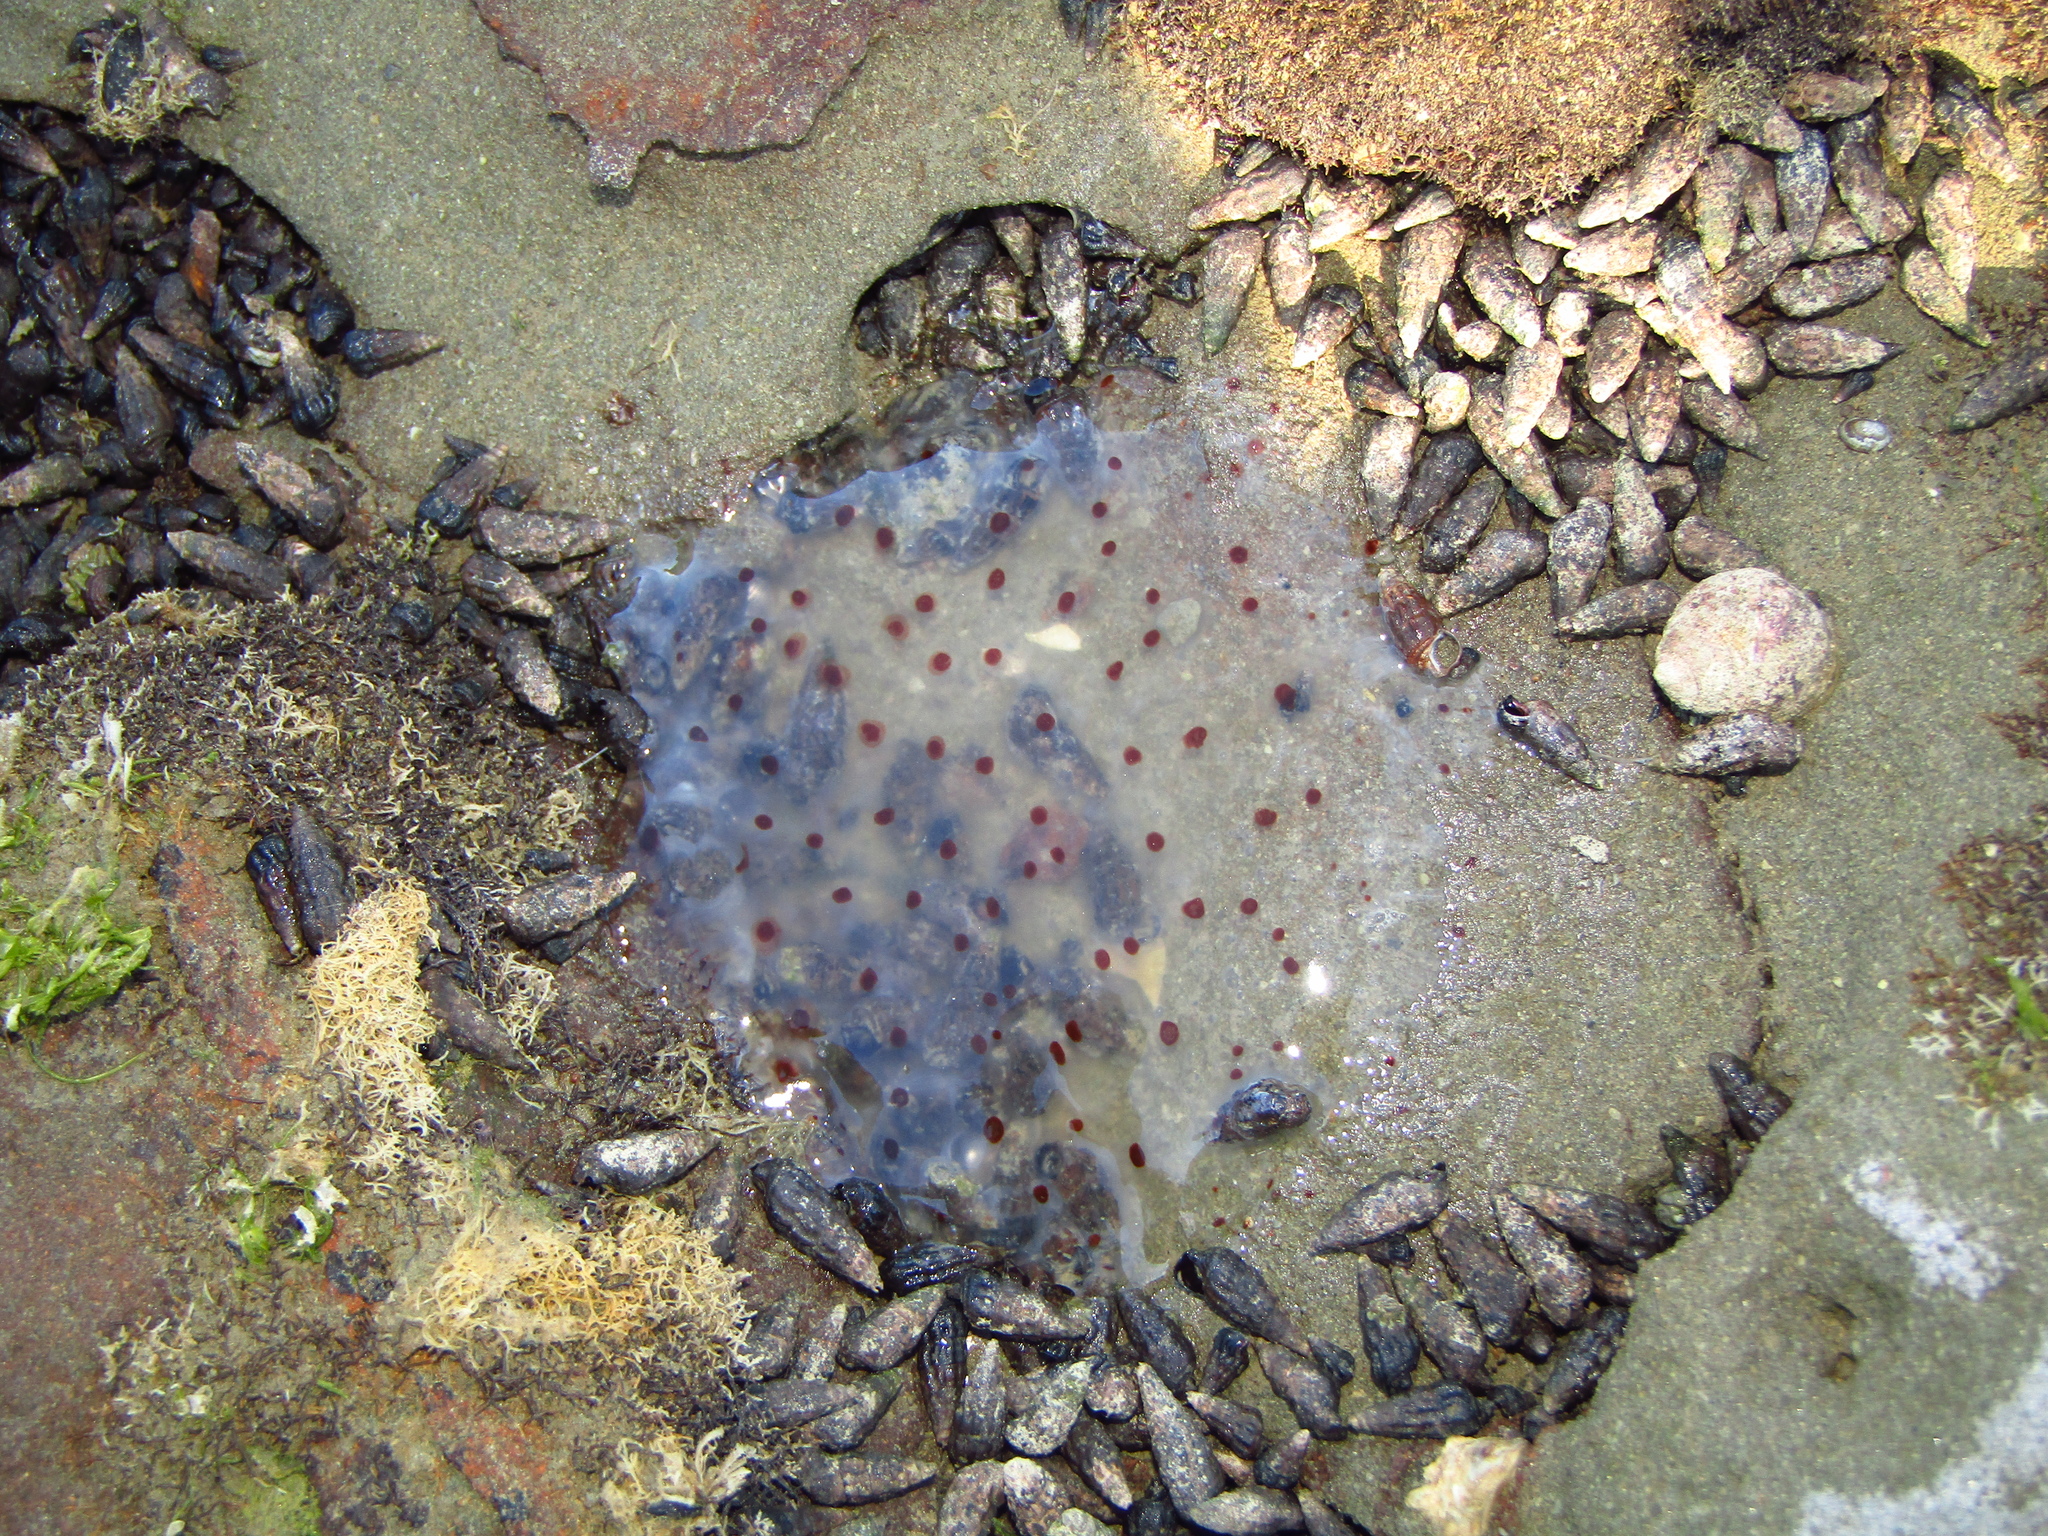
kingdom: Animalia
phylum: Cnidaria
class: Scyphozoa
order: Semaeostomeae
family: Cyaneidae
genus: Desmonema
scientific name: Desmonema gaudichaudi
